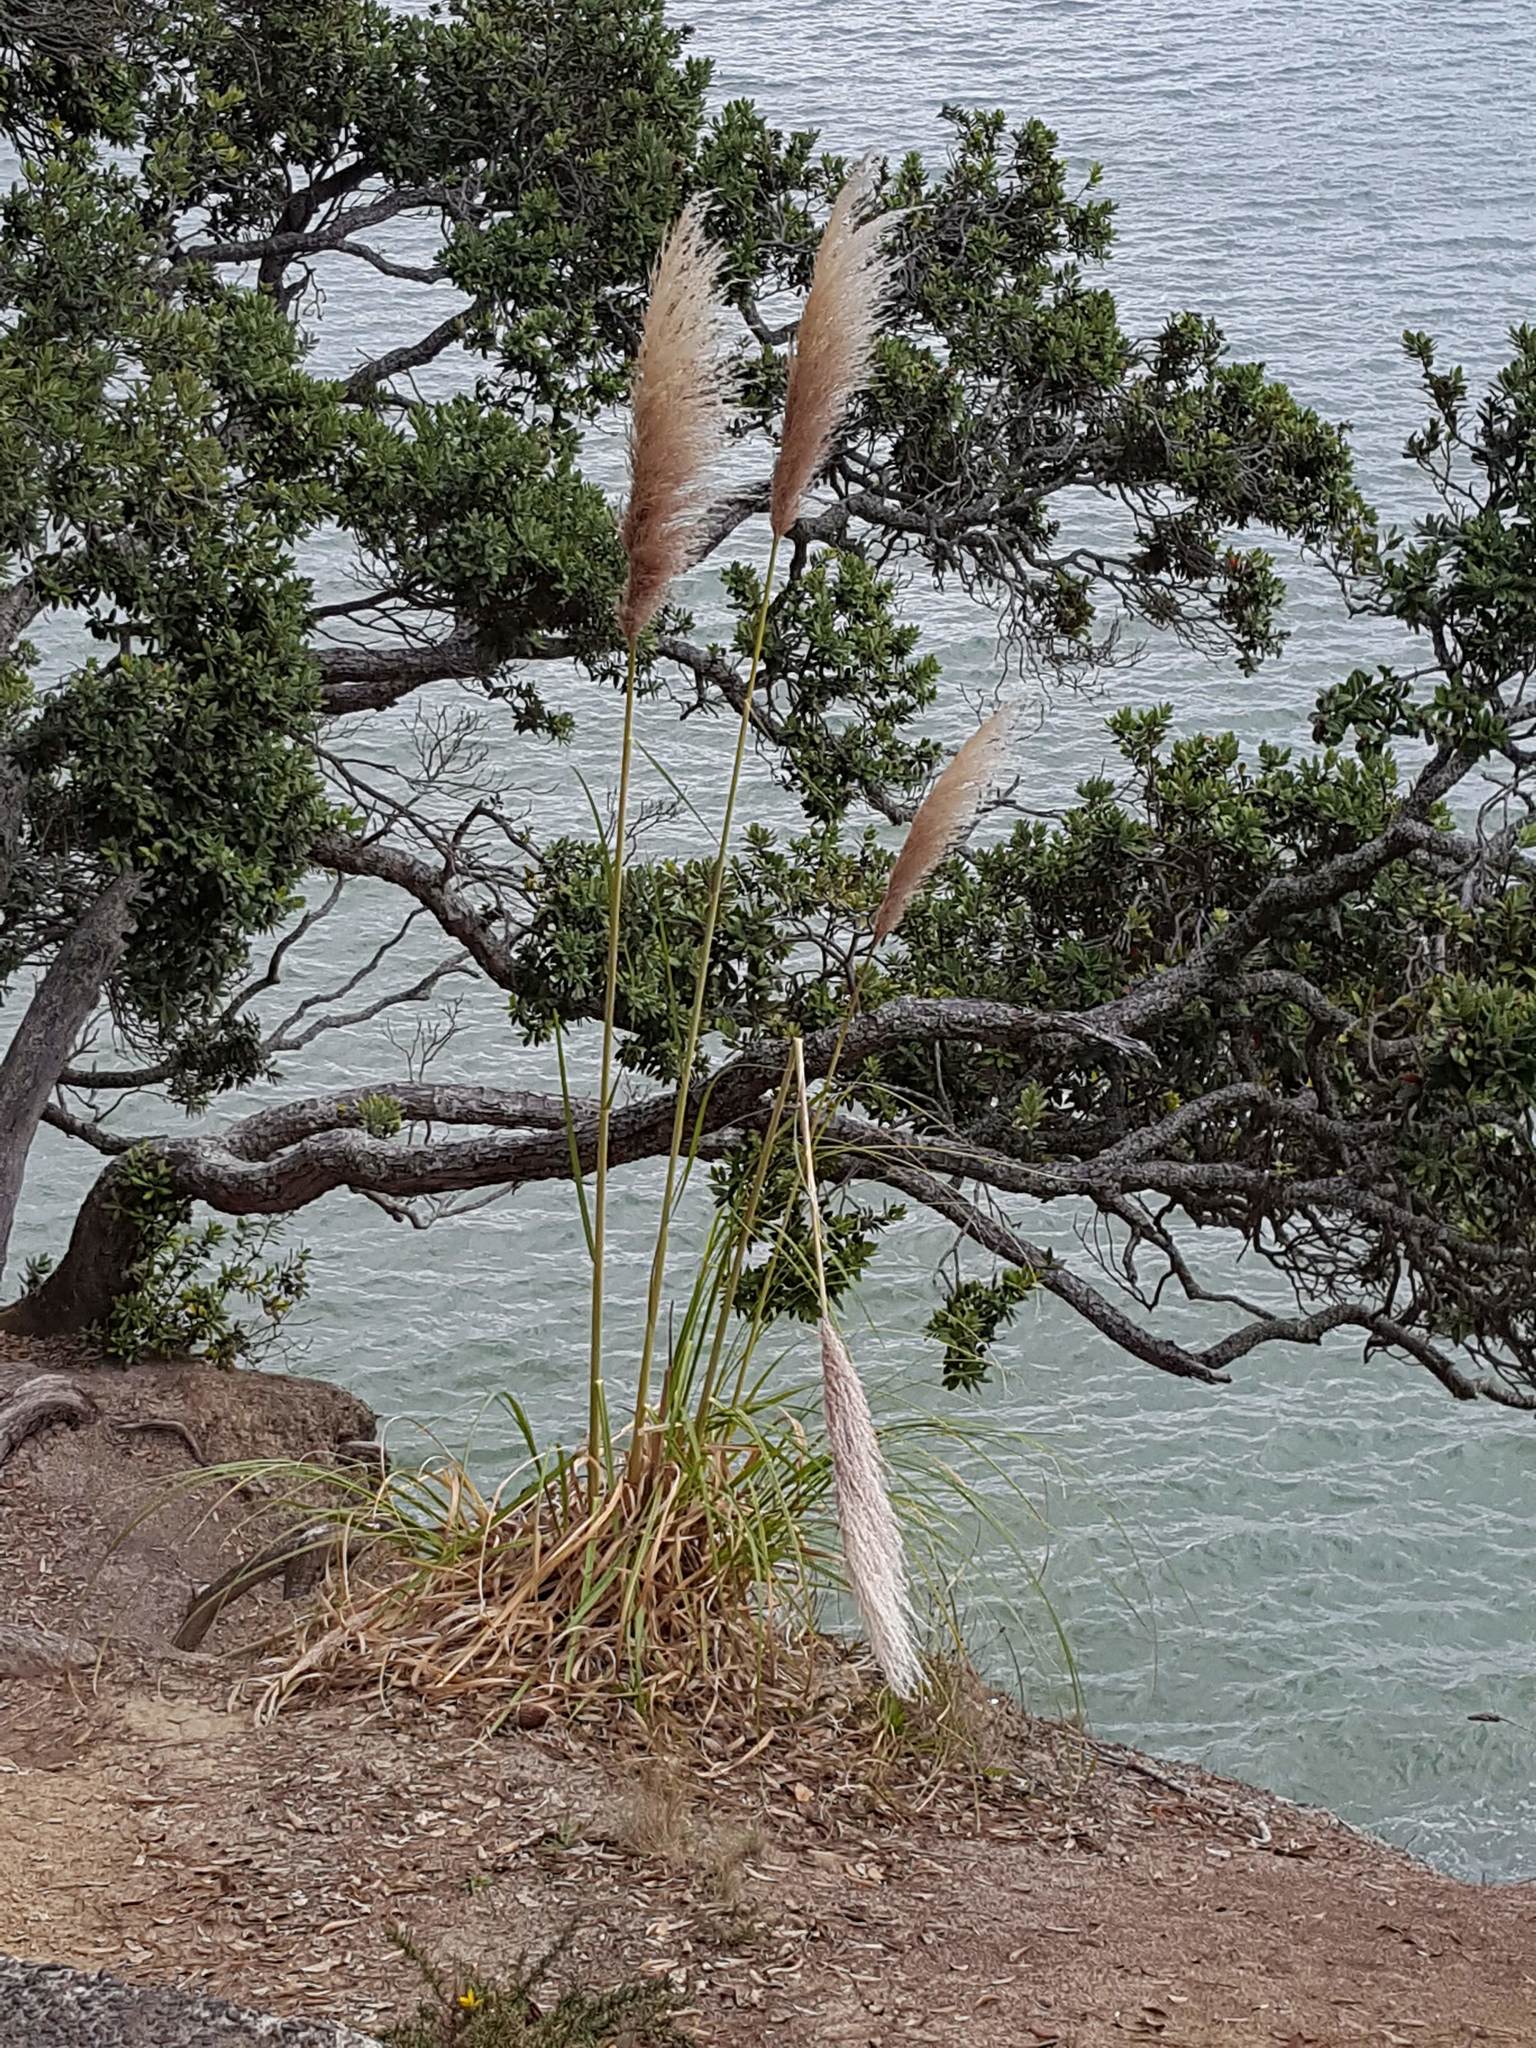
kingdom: Plantae
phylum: Tracheophyta
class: Liliopsida
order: Poales
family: Poaceae
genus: Cortaderia
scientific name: Cortaderia jubata
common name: Purple pampas grass
